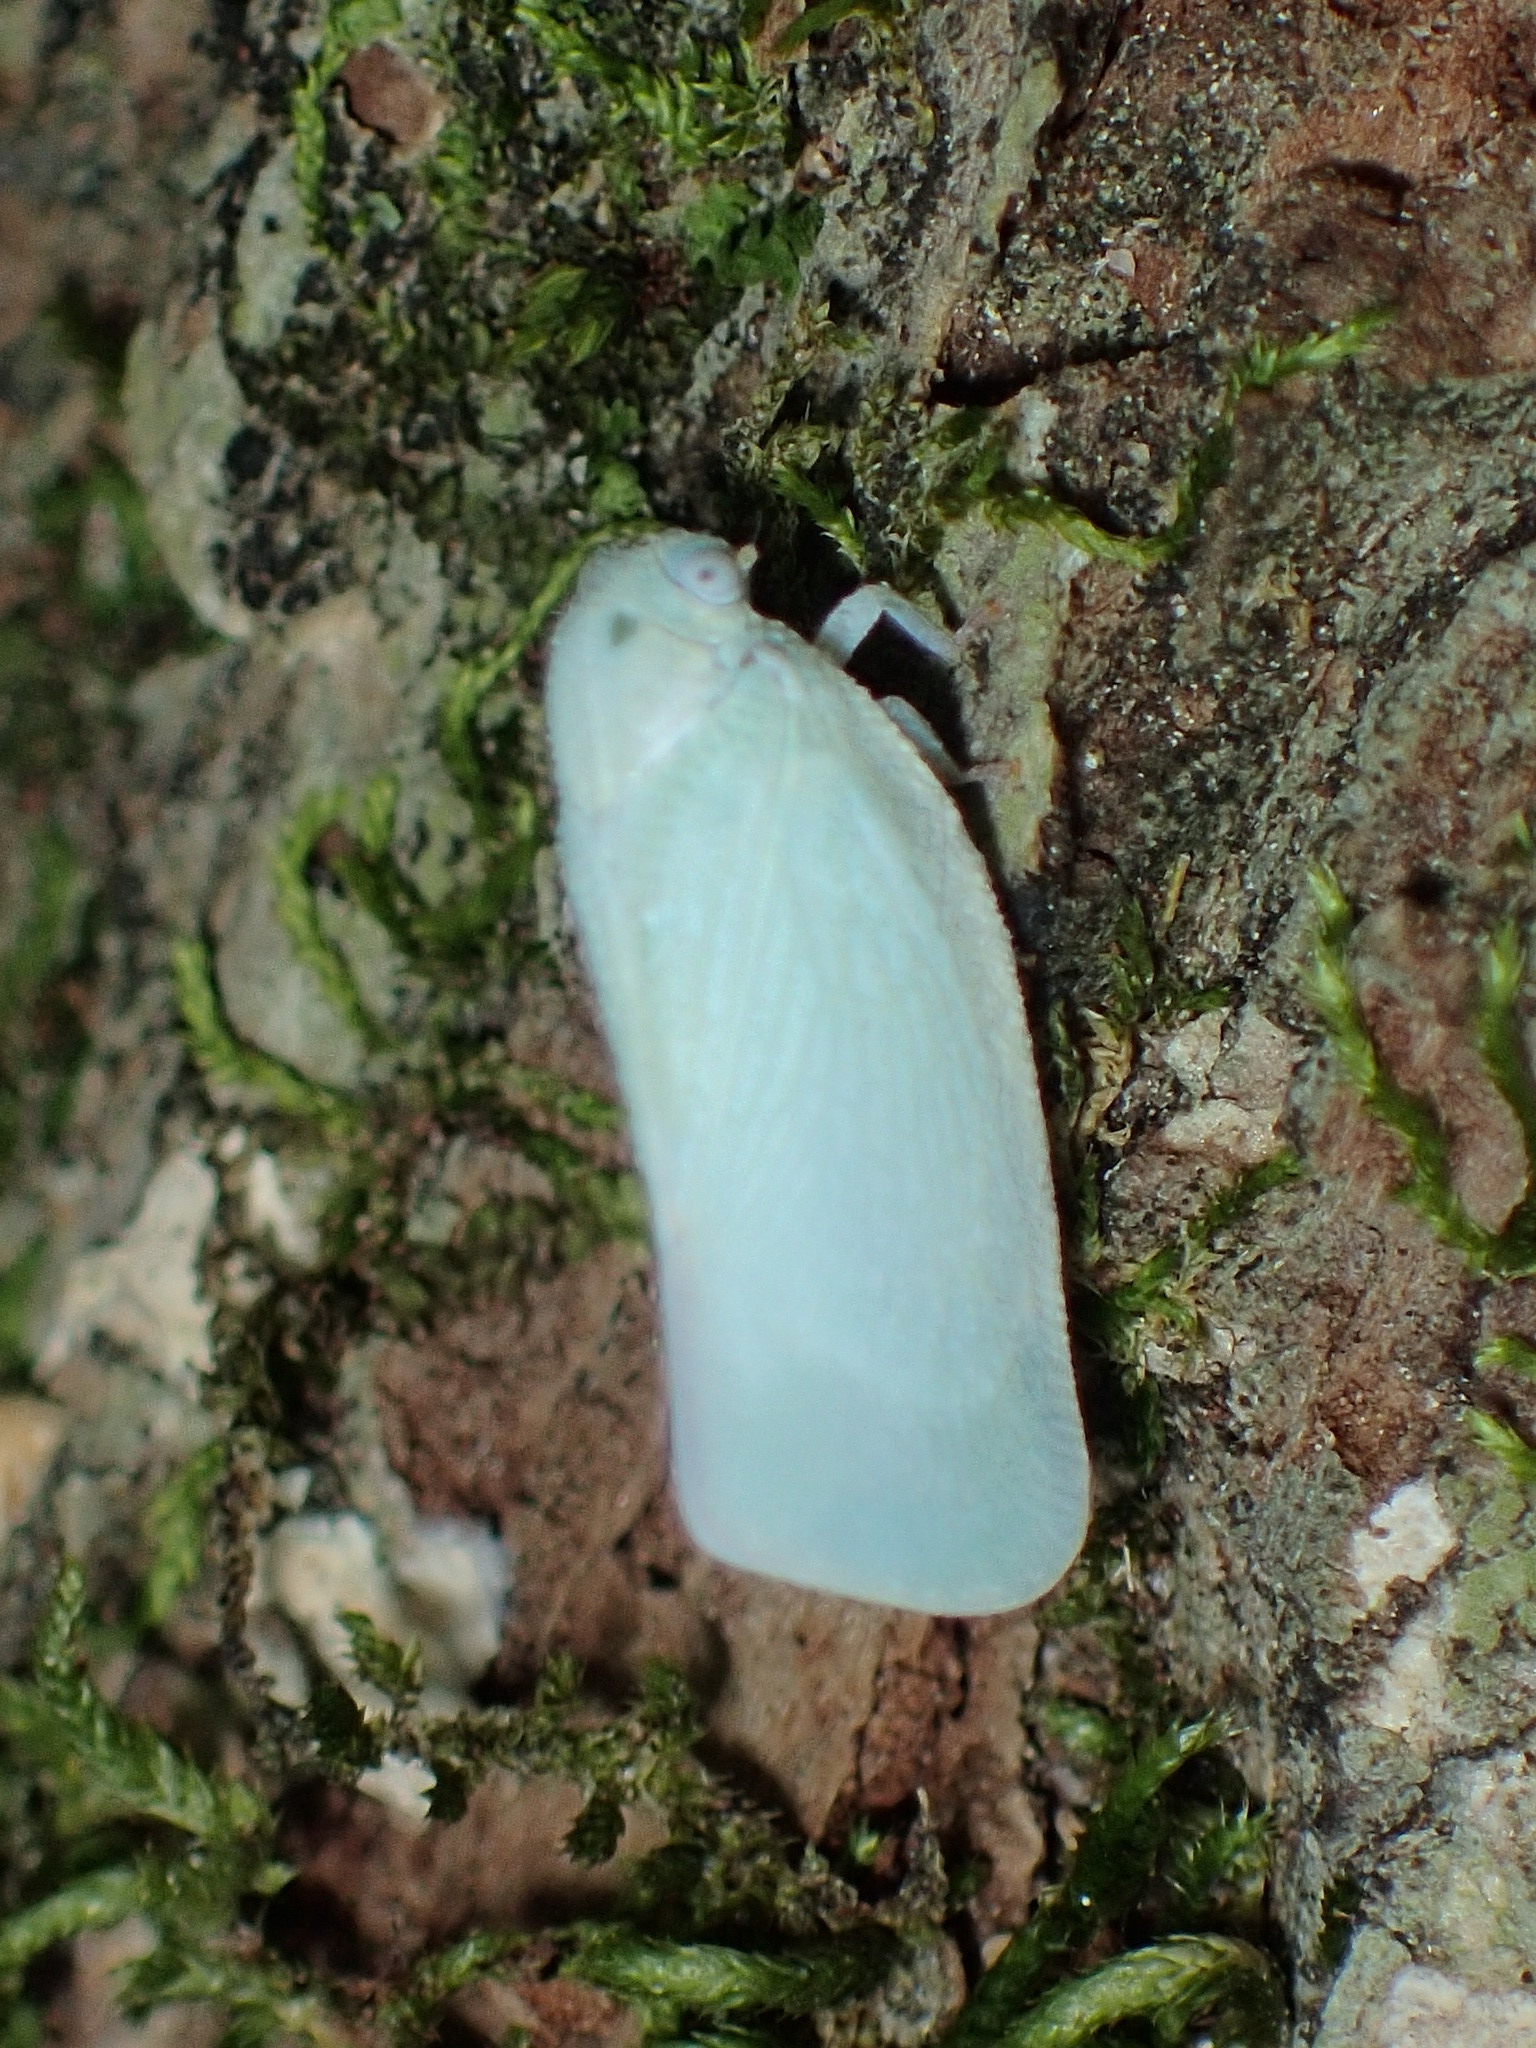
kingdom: Animalia
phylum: Arthropoda
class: Insecta
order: Hemiptera
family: Flatidae
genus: Flatormenis
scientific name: Flatormenis proxima
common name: Northern flatid planthopper
